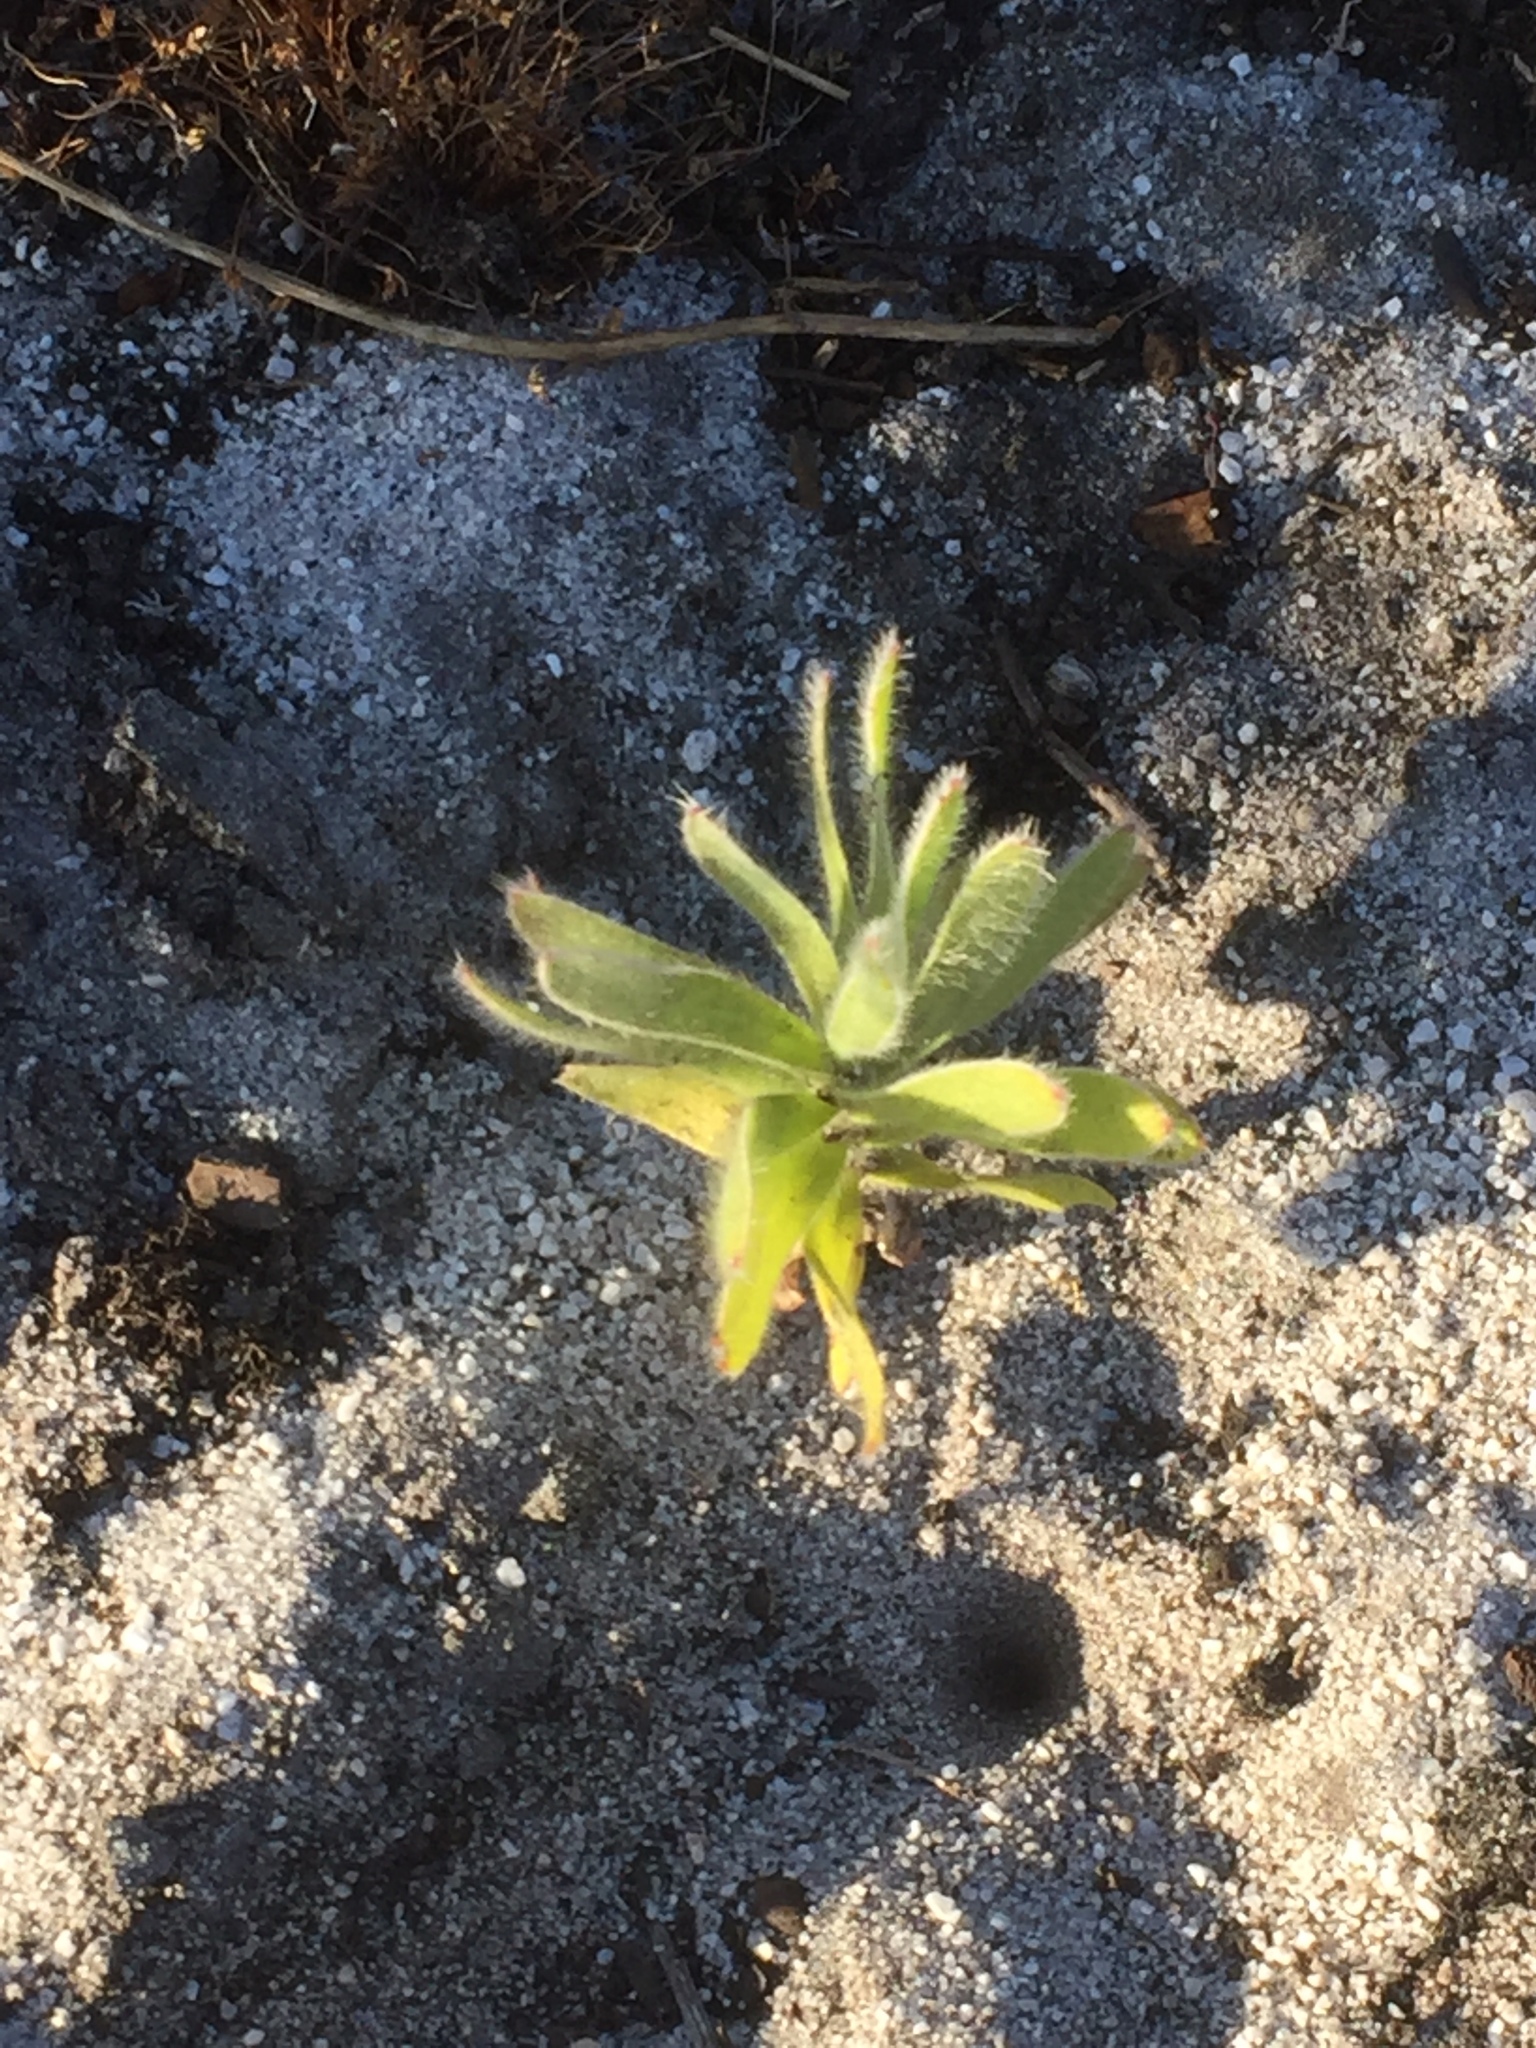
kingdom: Plantae
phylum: Tracheophyta
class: Magnoliopsida
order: Proteales
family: Proteaceae
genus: Leucospermum
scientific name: Leucospermum conocarpodendron
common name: Tree pincushion
